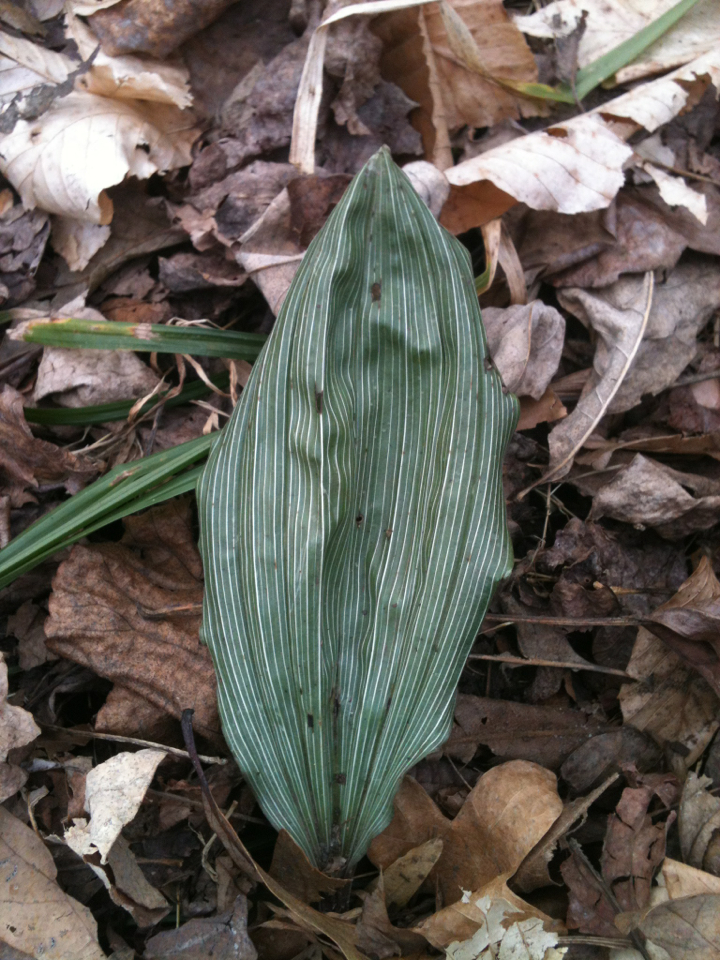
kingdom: Plantae
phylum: Tracheophyta
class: Liliopsida
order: Asparagales
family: Orchidaceae
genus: Aplectrum
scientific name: Aplectrum hyemale
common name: Adam-and-eve
